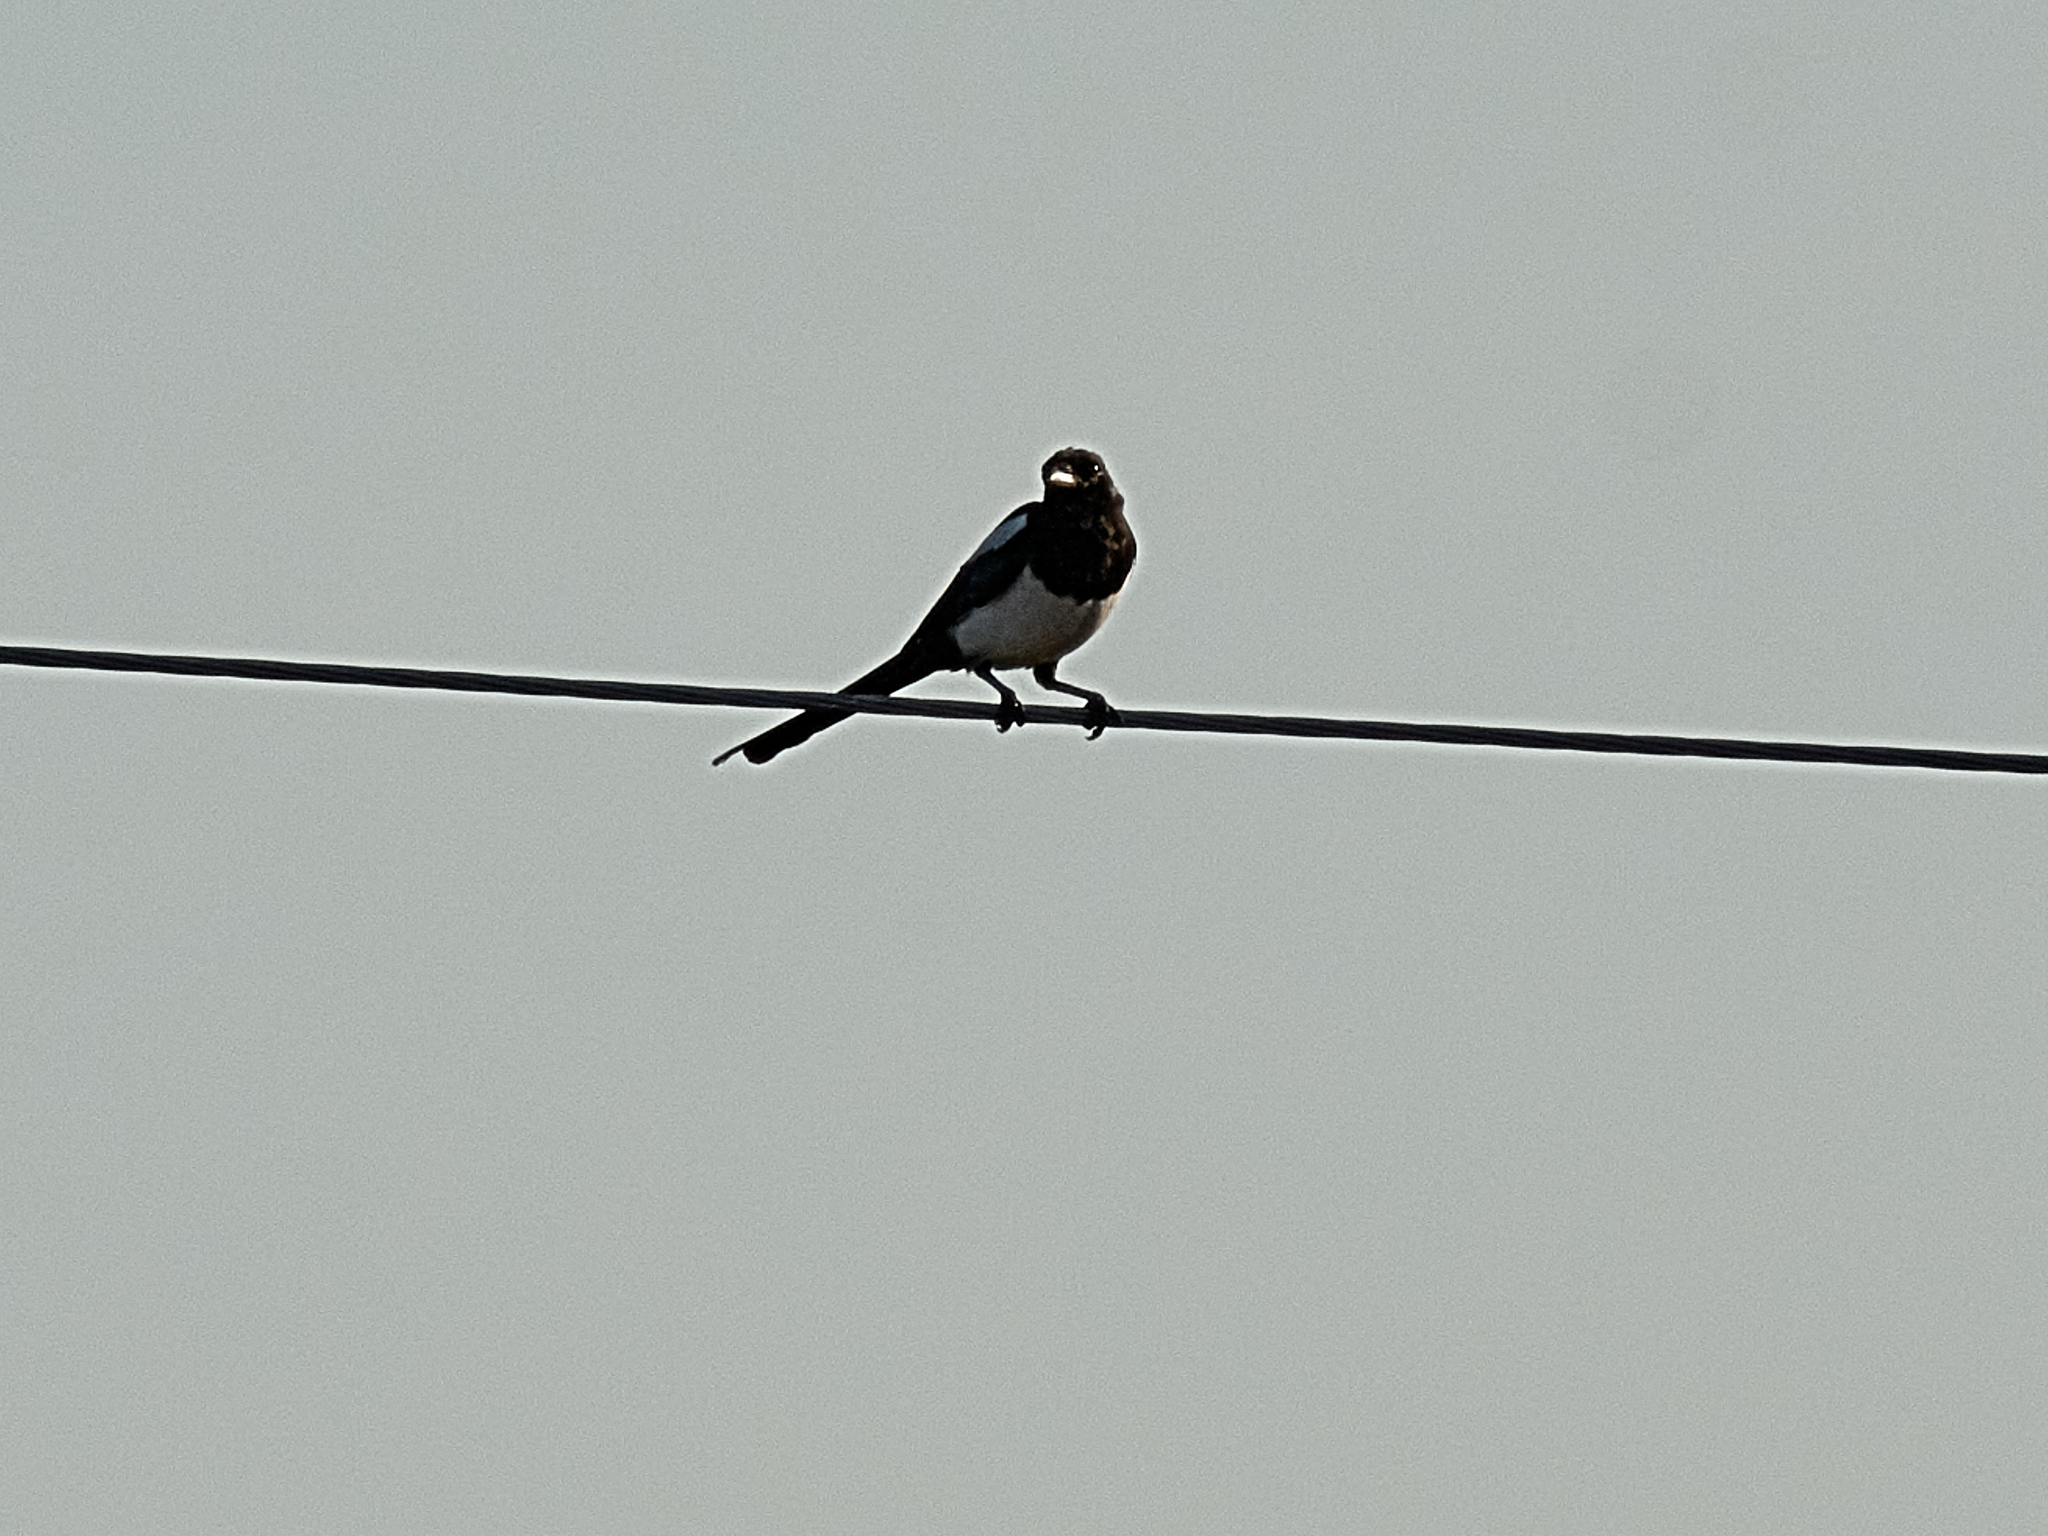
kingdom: Animalia
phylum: Chordata
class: Aves
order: Passeriformes
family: Corvidae
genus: Pica
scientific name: Pica pica
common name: Eurasian magpie
